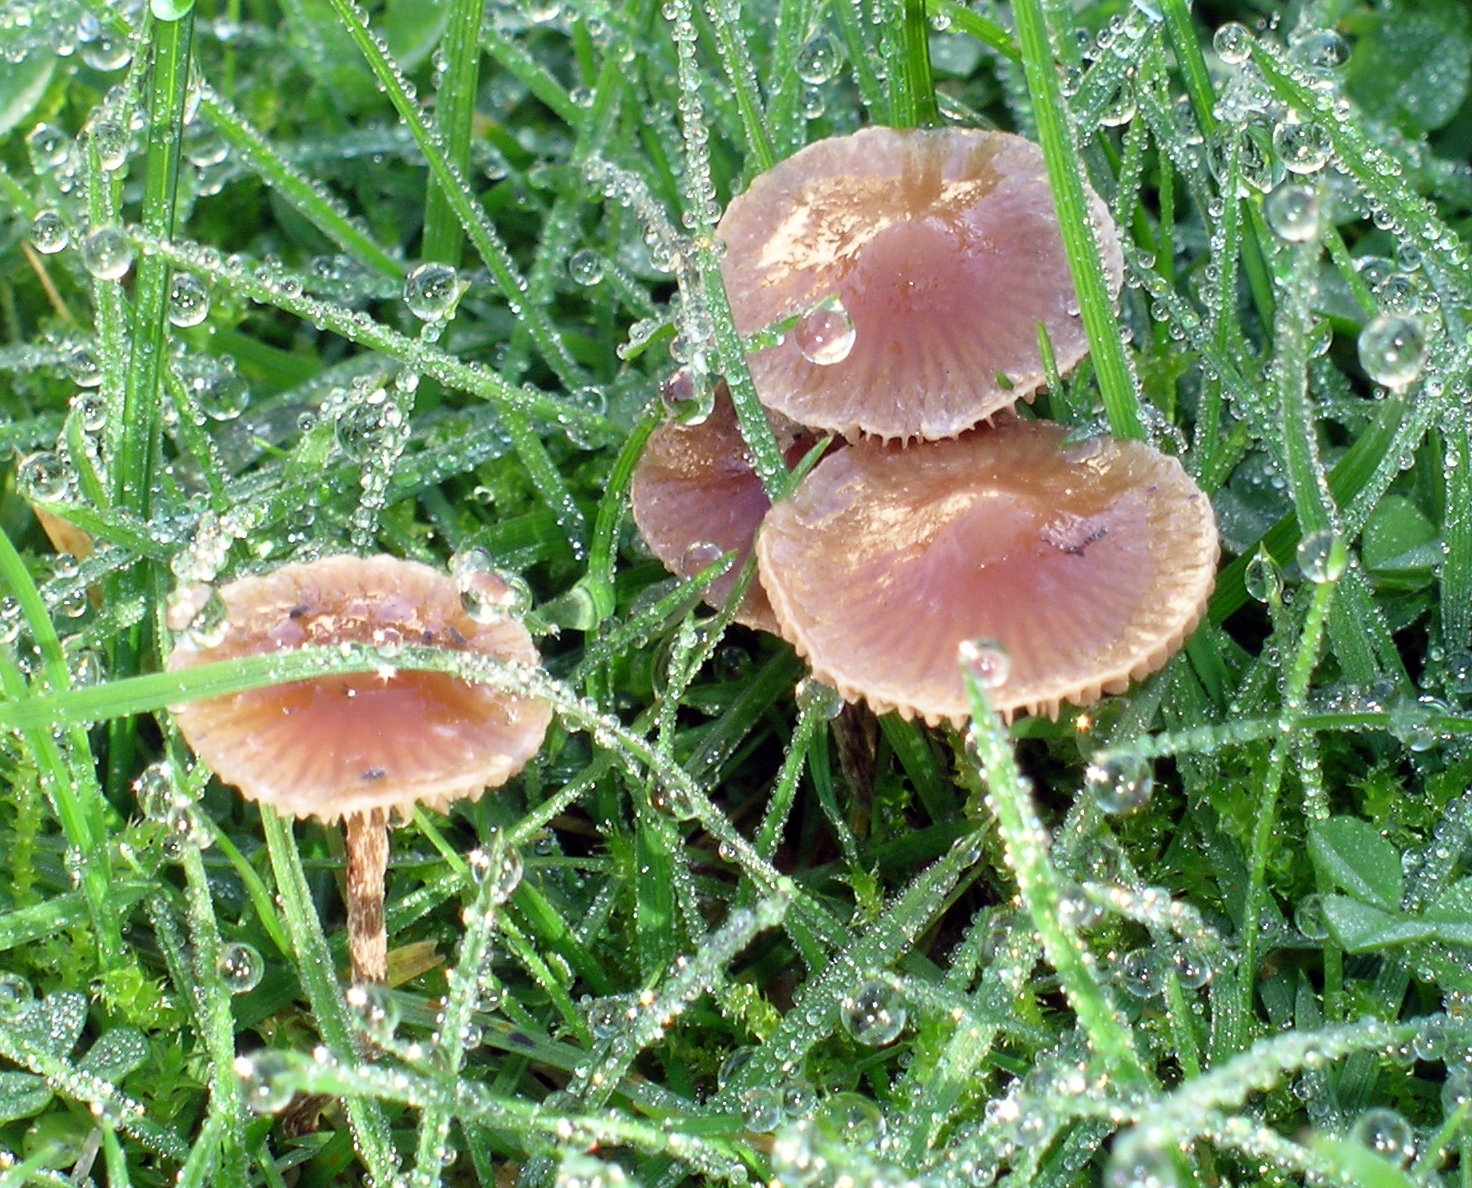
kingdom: Fungi
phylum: Basidiomycota
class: Agaricomycetes
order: Agaricales
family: Hymenogastraceae
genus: Psilocybe
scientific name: Psilocybe subviscida
